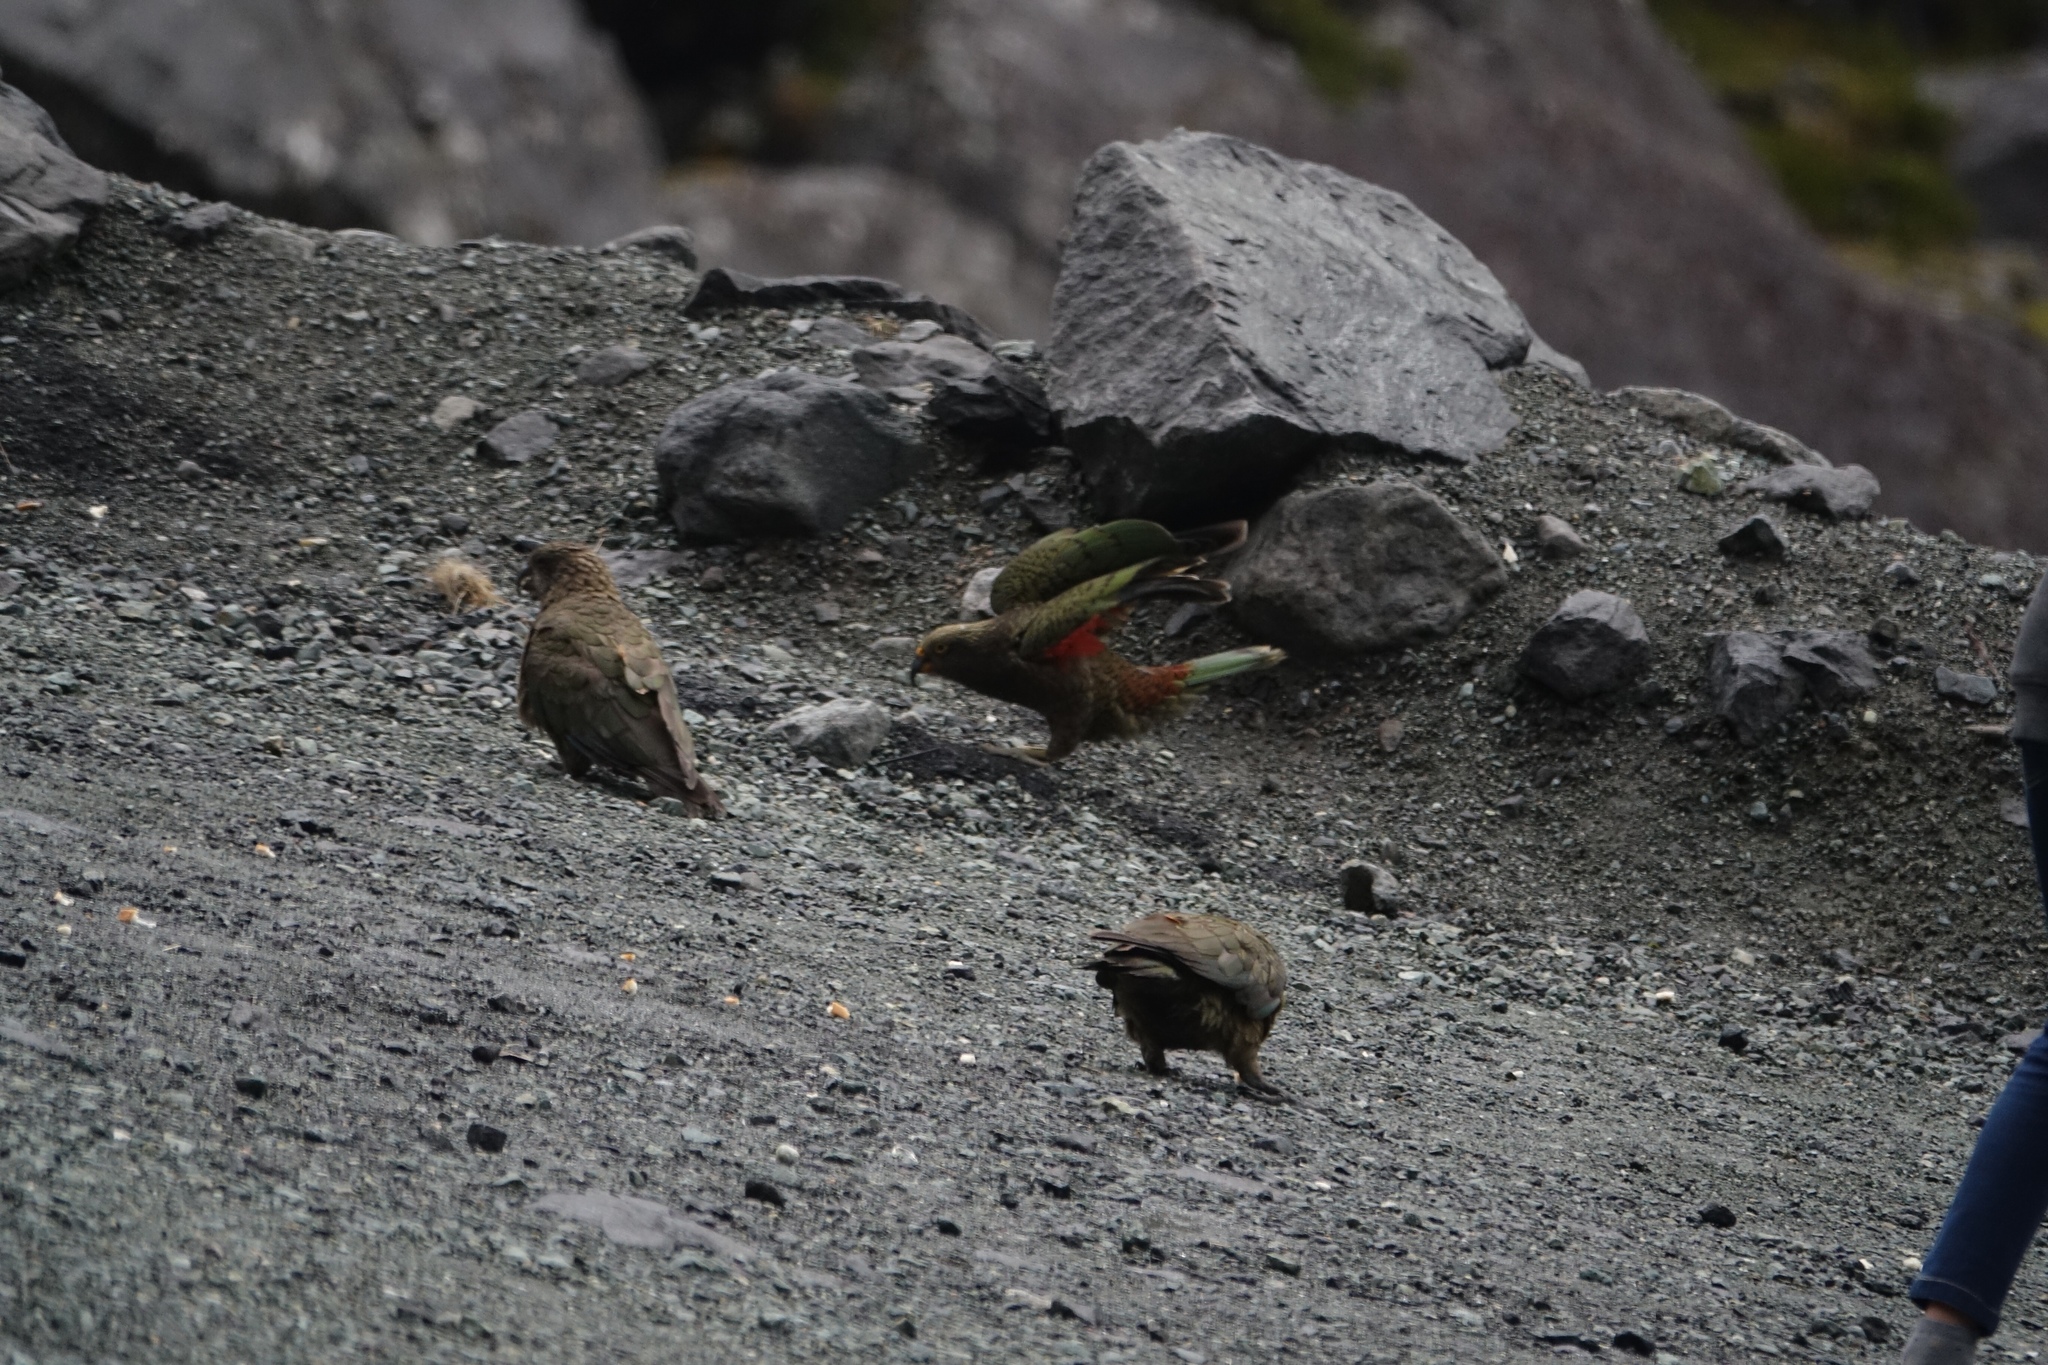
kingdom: Animalia
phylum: Chordata
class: Aves
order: Psittaciformes
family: Psittacidae
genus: Nestor
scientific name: Nestor notabilis
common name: Kea
